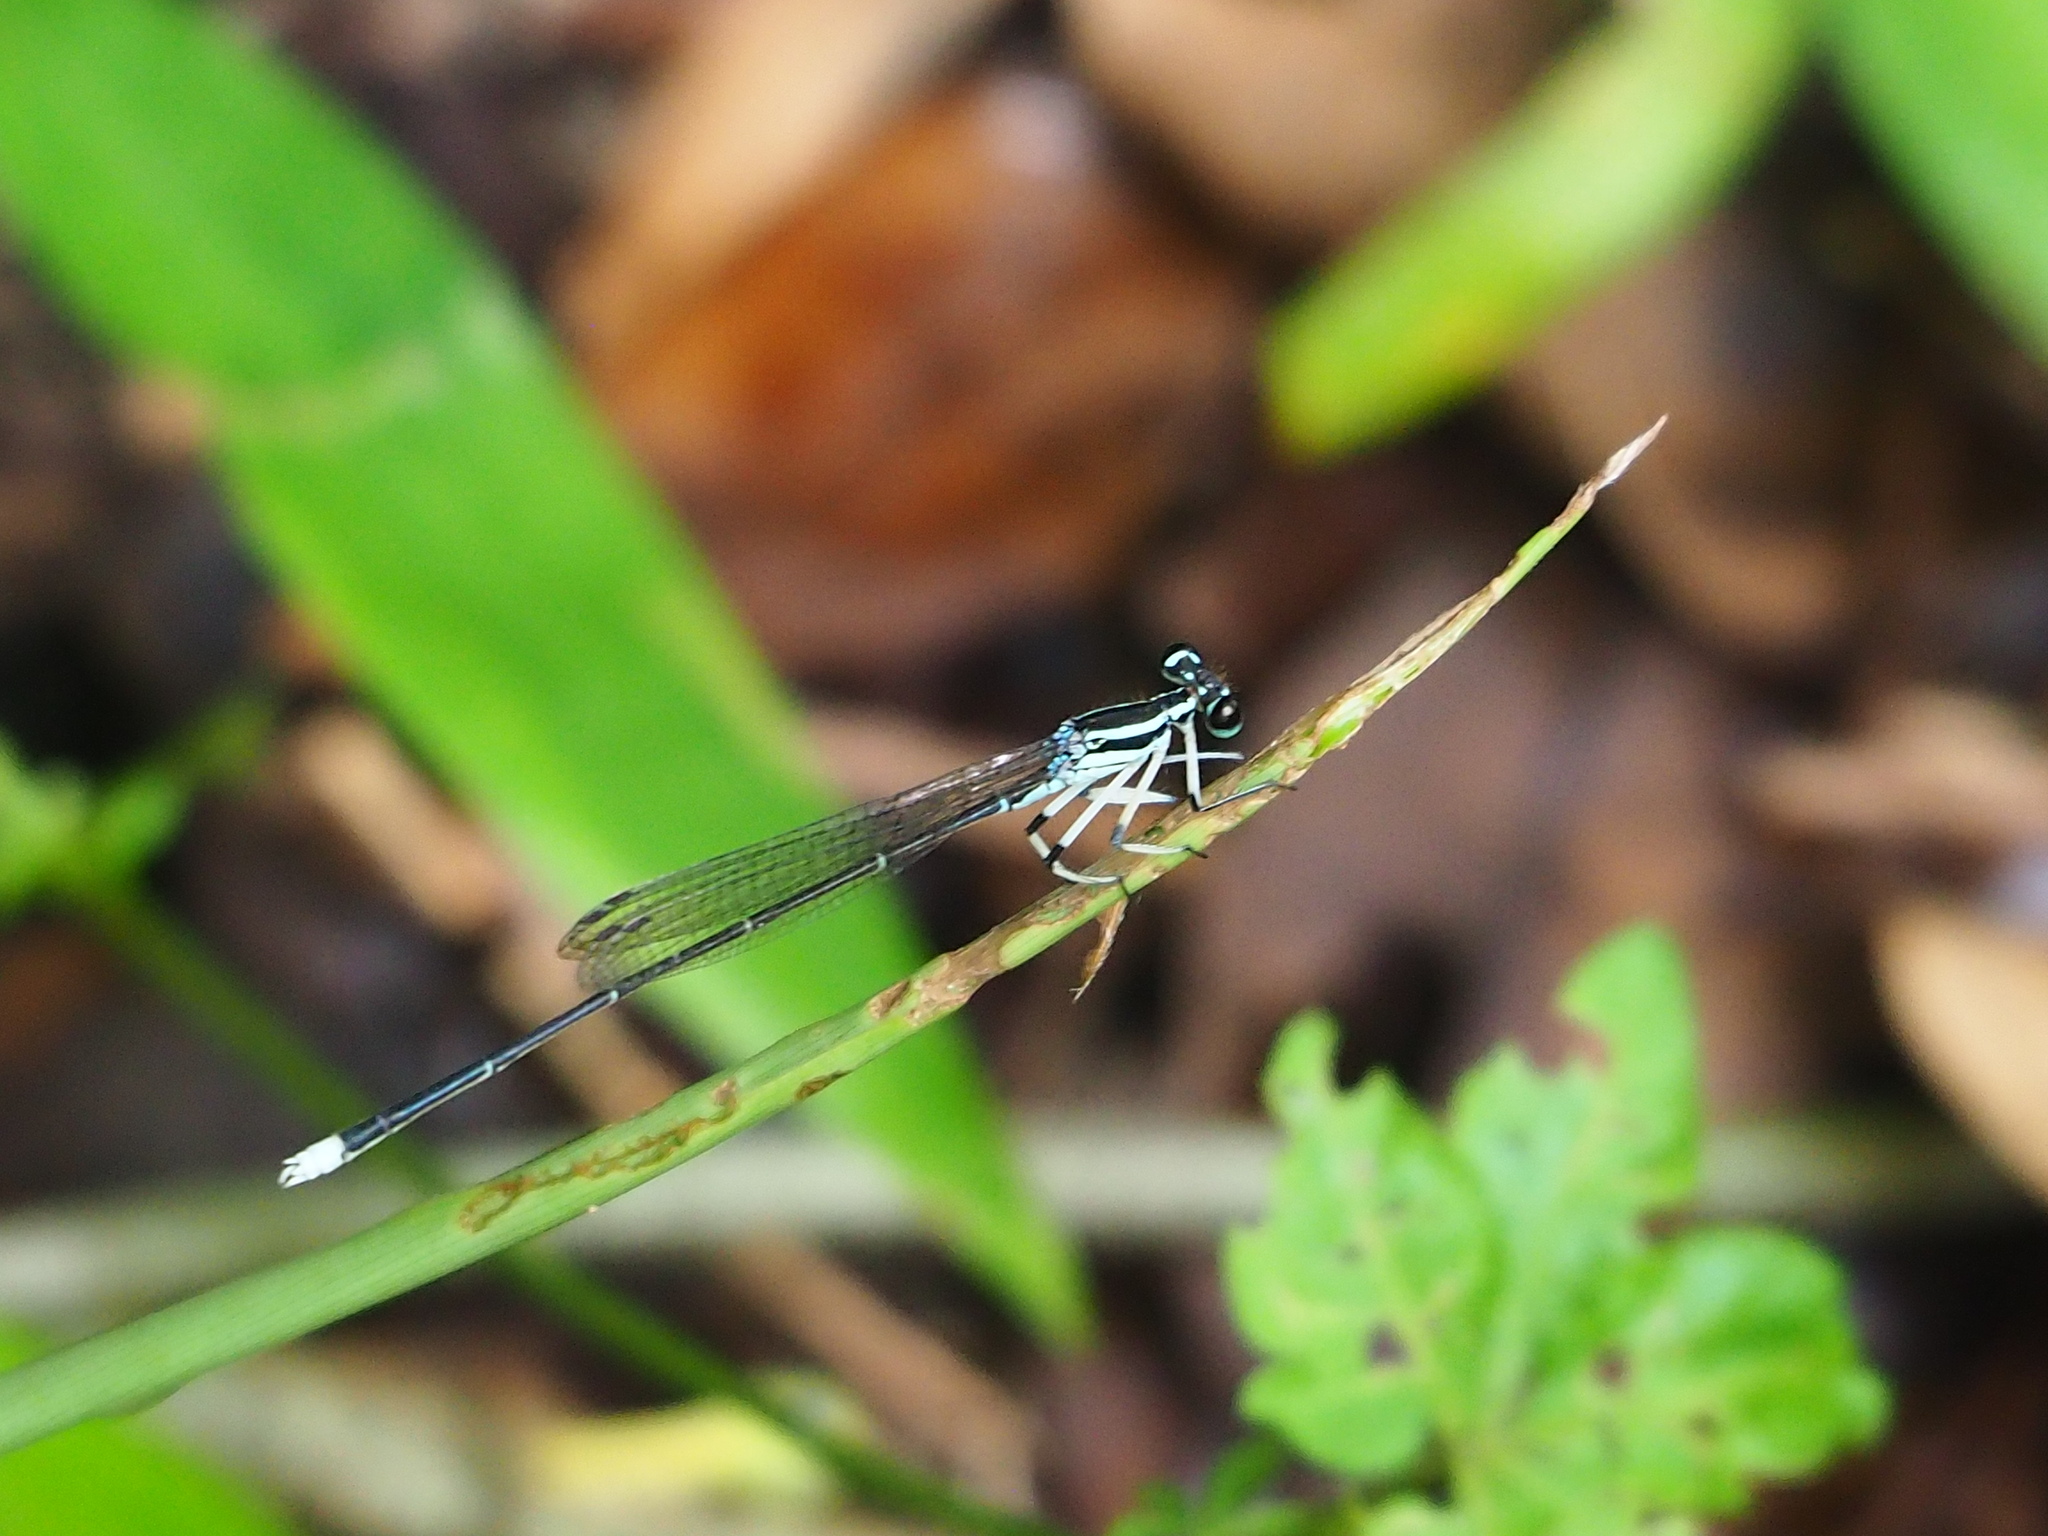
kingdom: Animalia
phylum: Arthropoda
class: Insecta
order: Odonata
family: Platycnemididae
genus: Pseudocopera
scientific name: Pseudocopera ciliata
